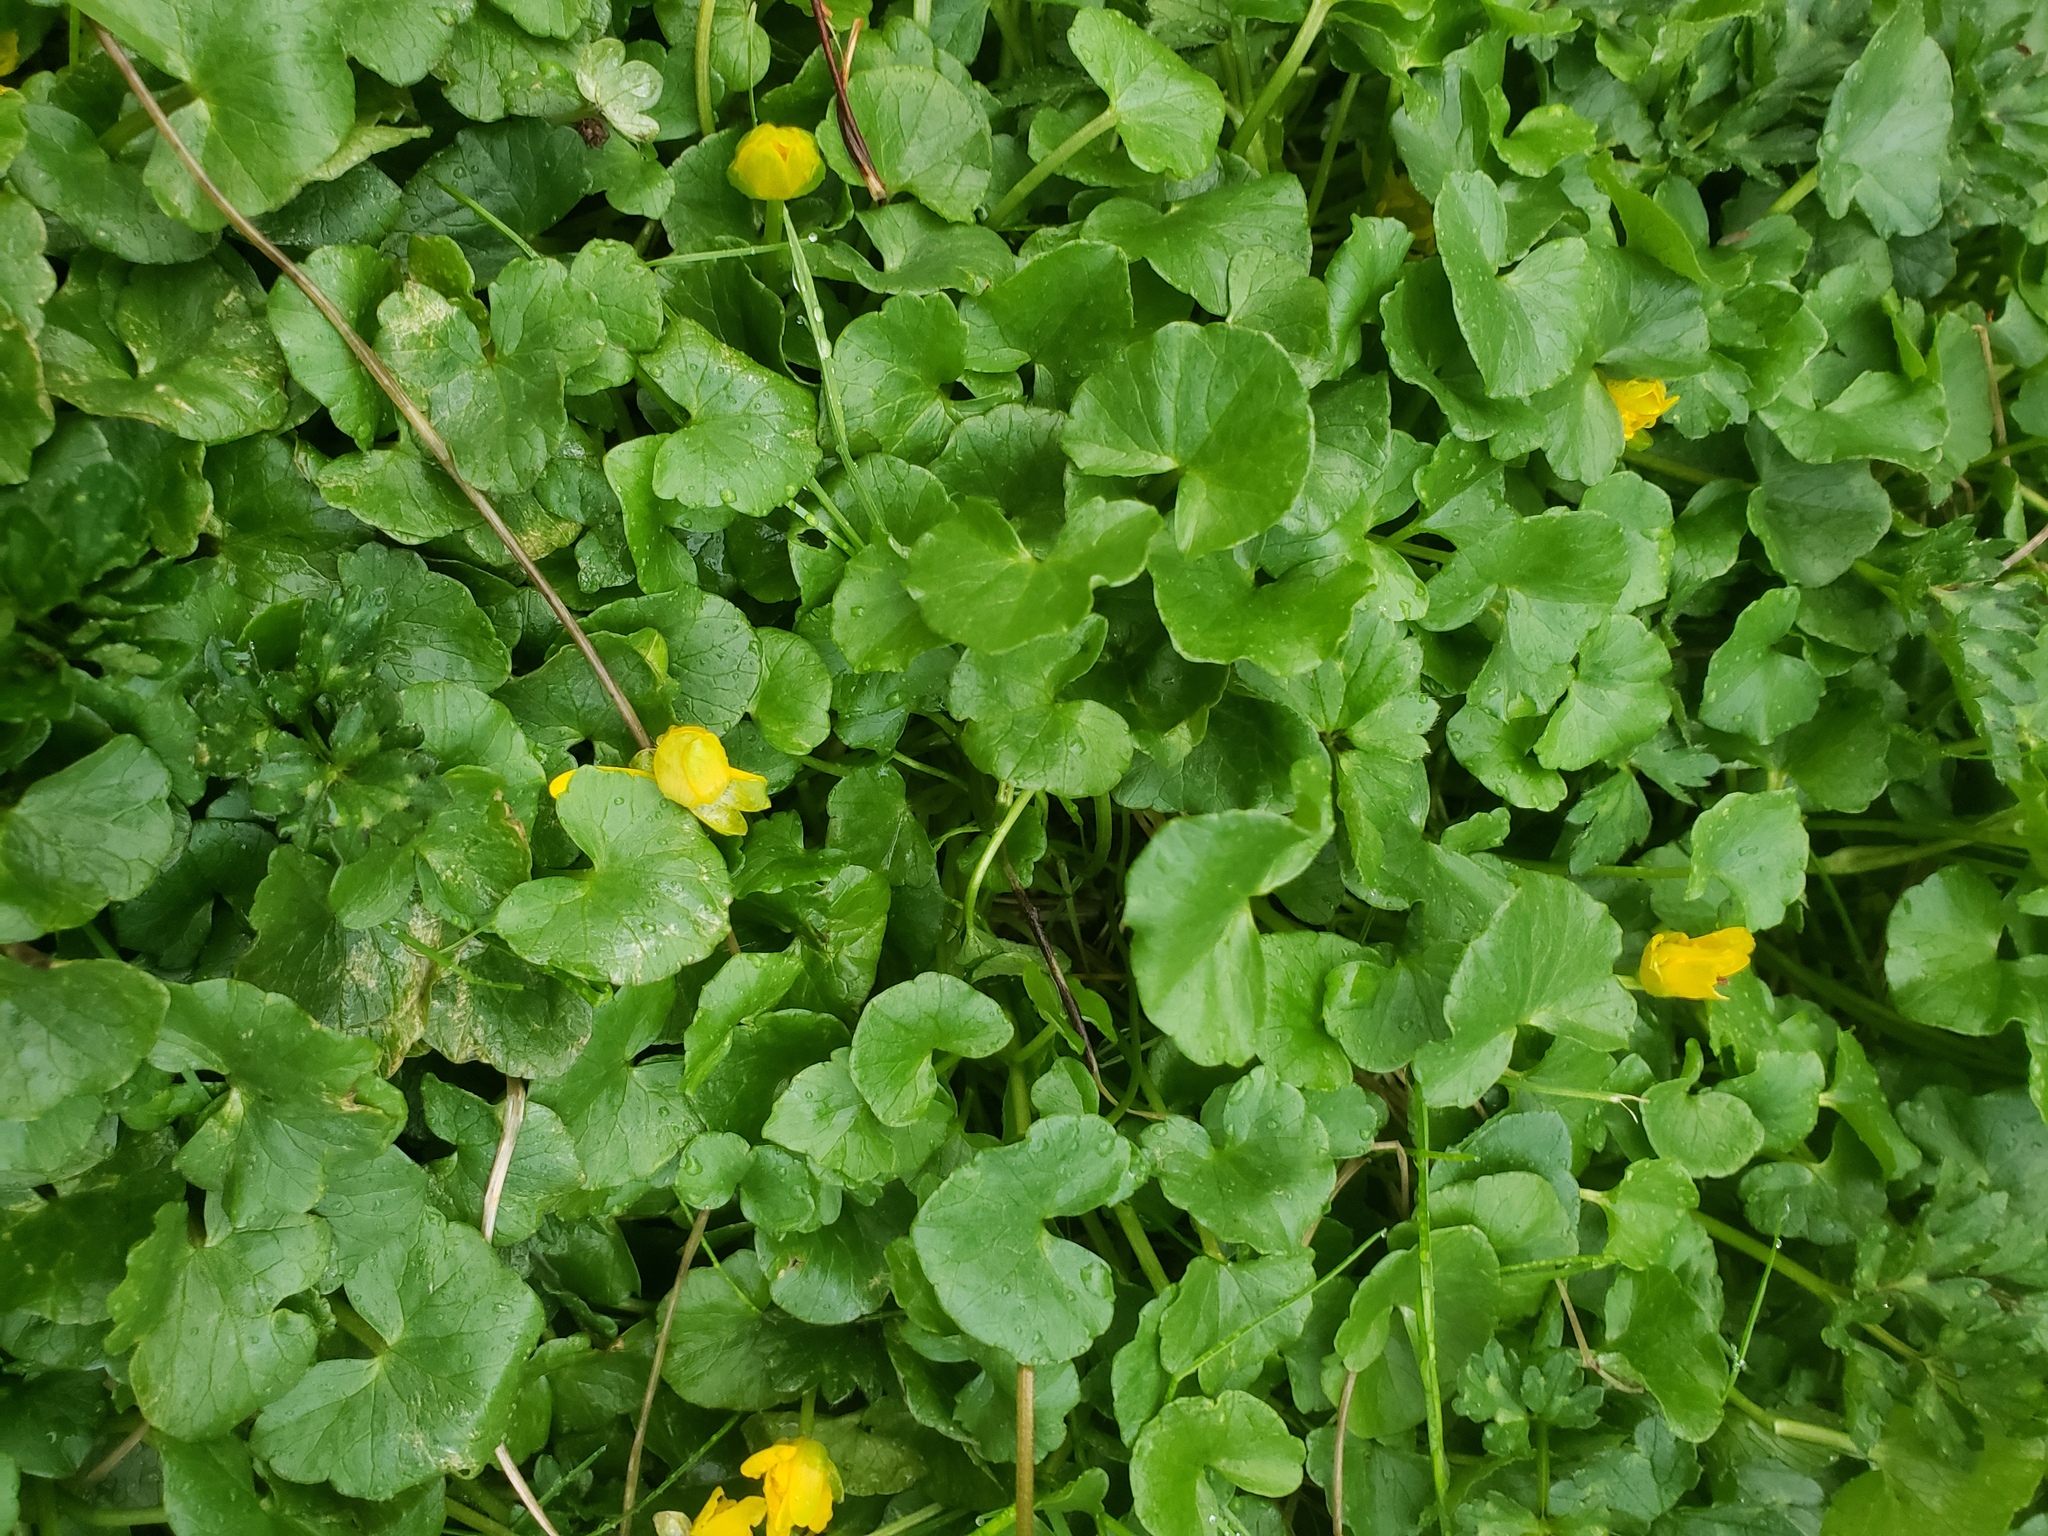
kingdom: Plantae
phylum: Tracheophyta
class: Magnoliopsida
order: Ranunculales
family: Ranunculaceae
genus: Ficaria
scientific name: Ficaria verna
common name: Lesser celandine
